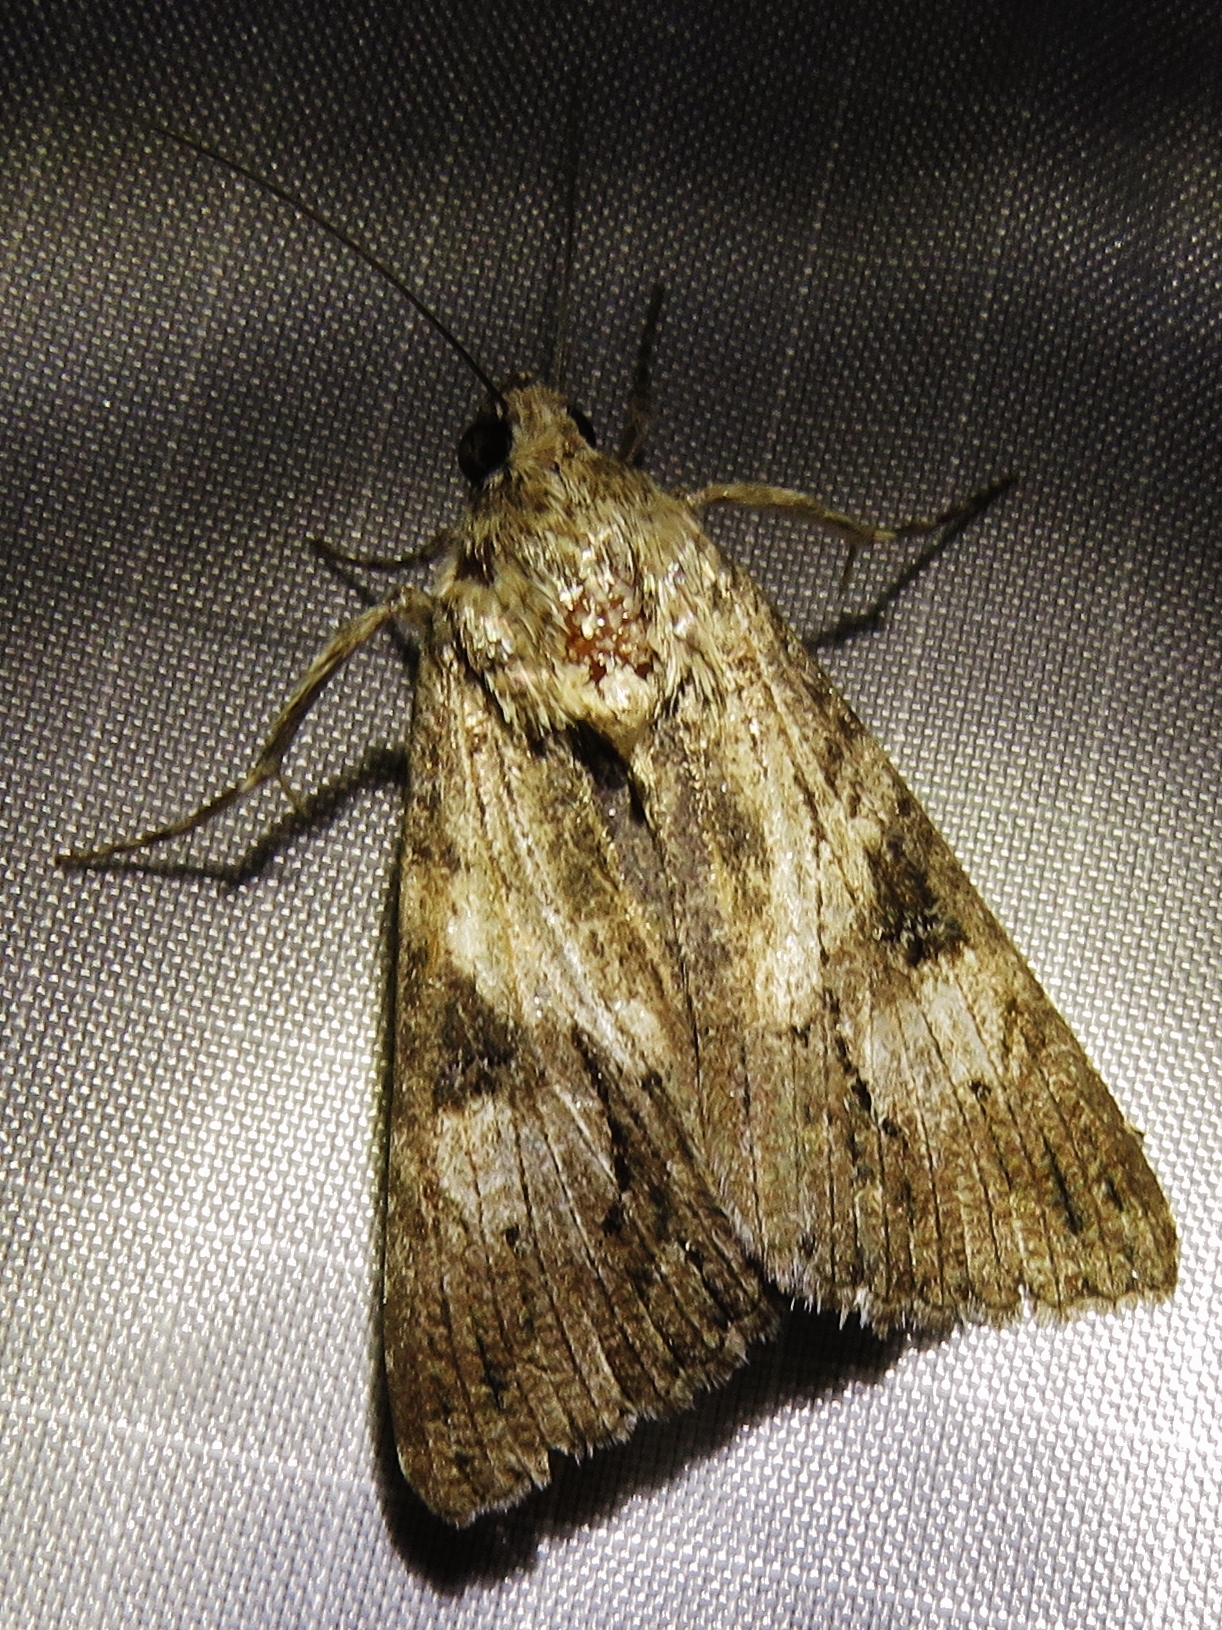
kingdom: Animalia
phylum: Arthropoda
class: Insecta
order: Lepidoptera
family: Erebidae
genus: Melipotis
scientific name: Melipotis jucunda
